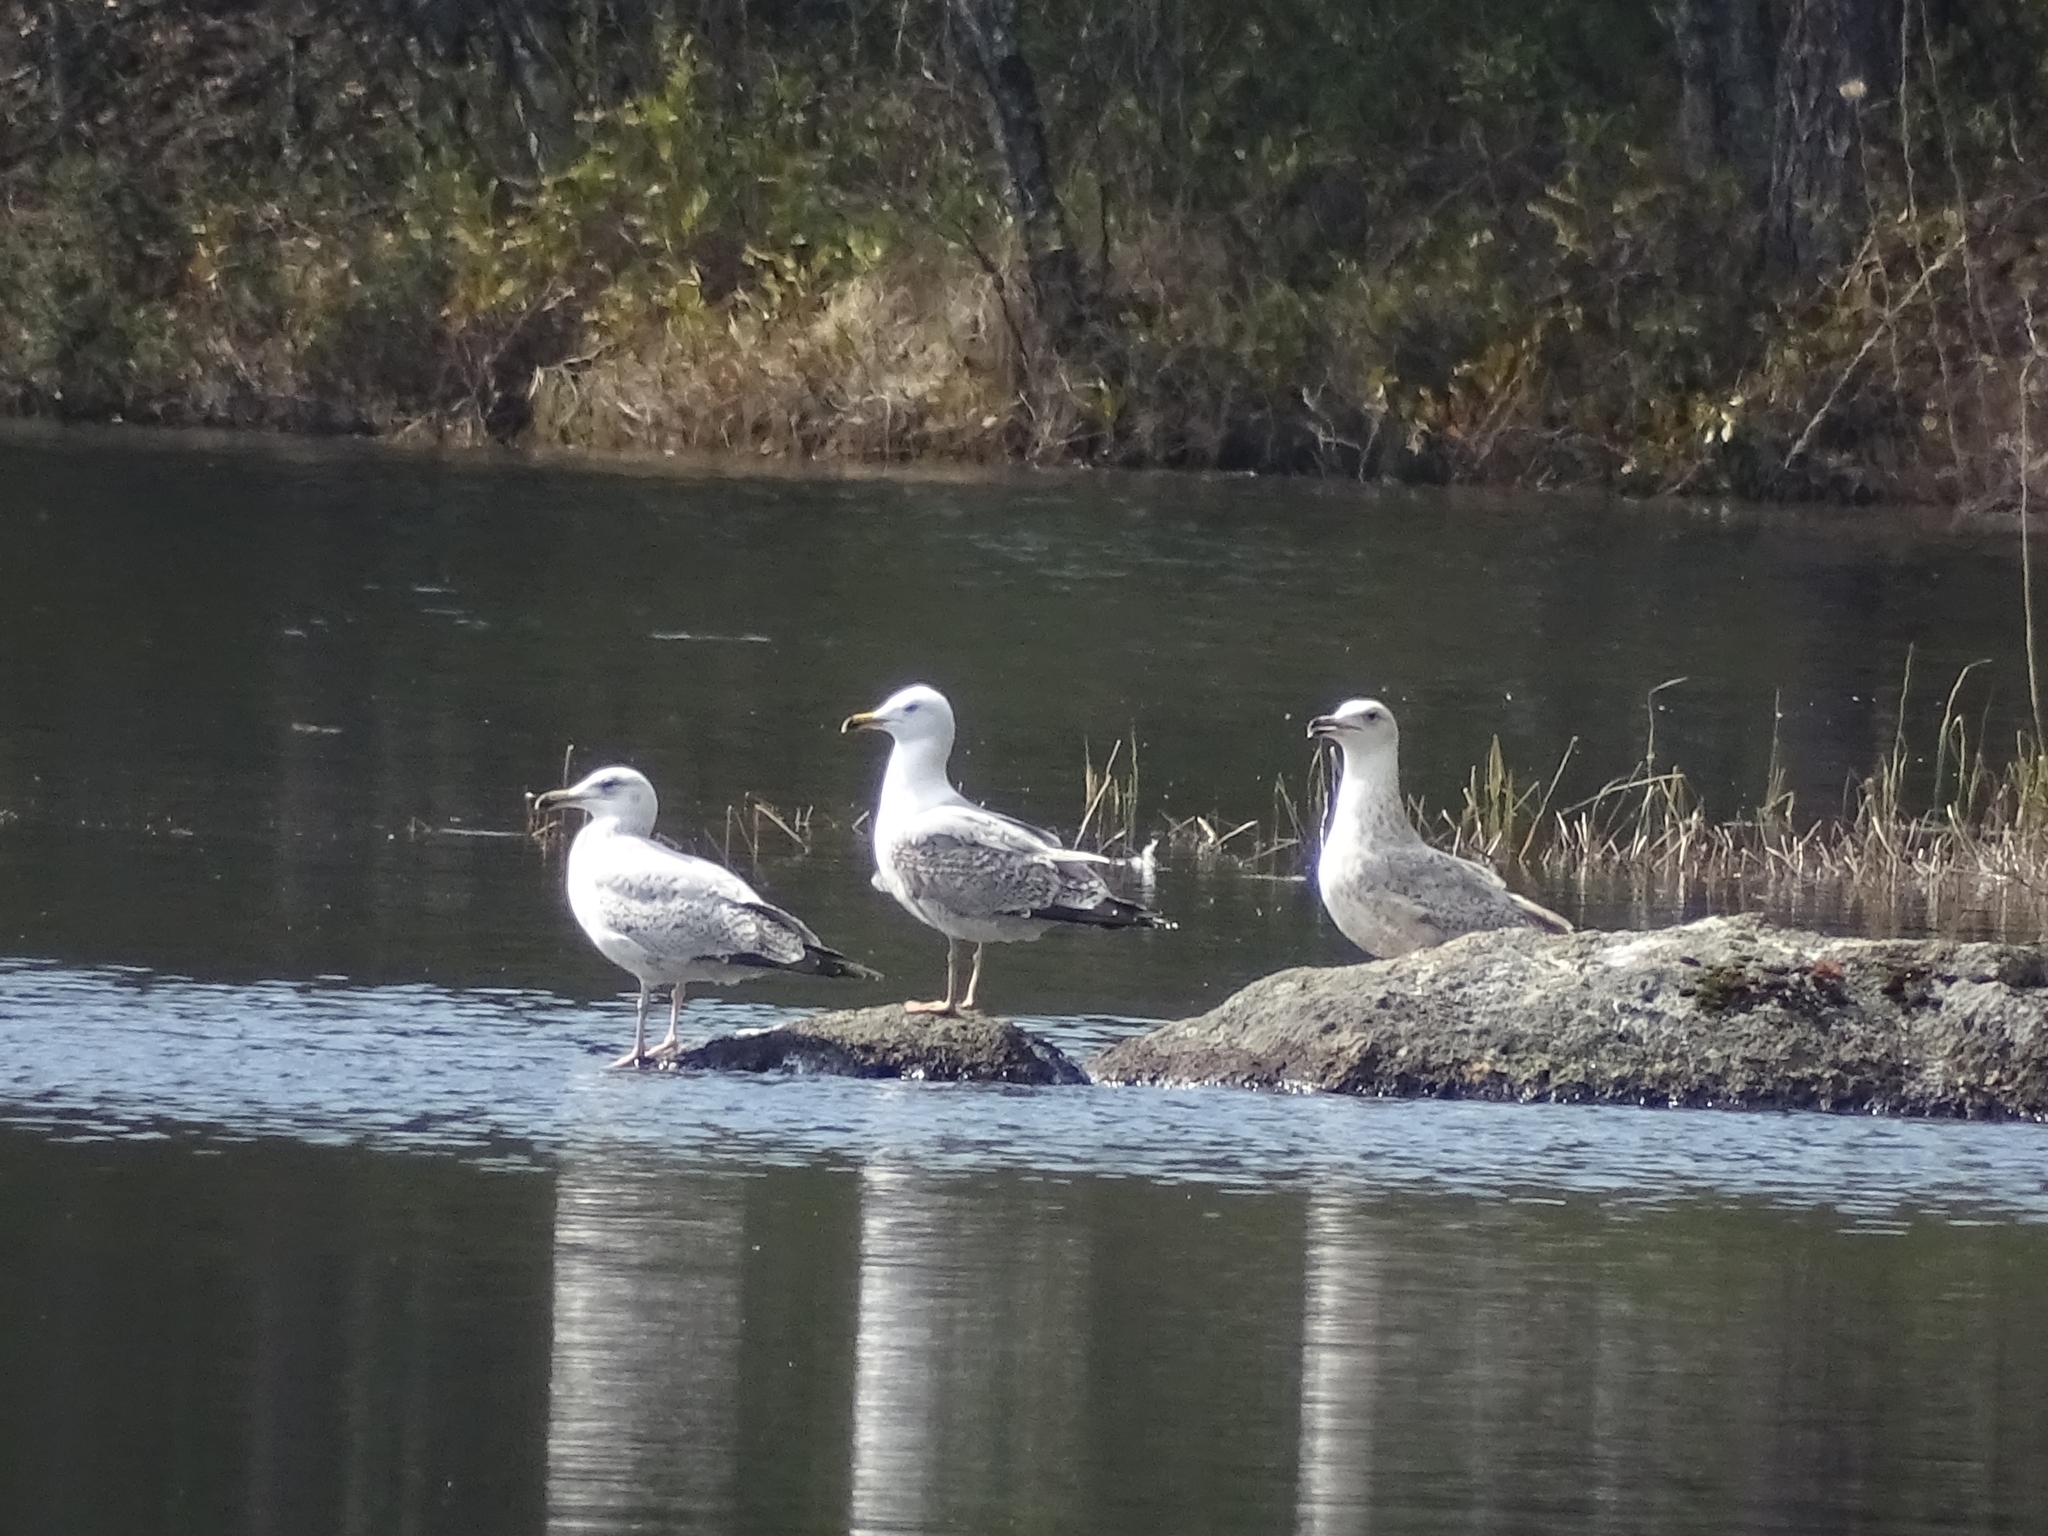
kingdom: Animalia
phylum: Chordata
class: Aves
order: Charadriiformes
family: Laridae
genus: Larus
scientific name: Larus argentatus
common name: Herring gull
